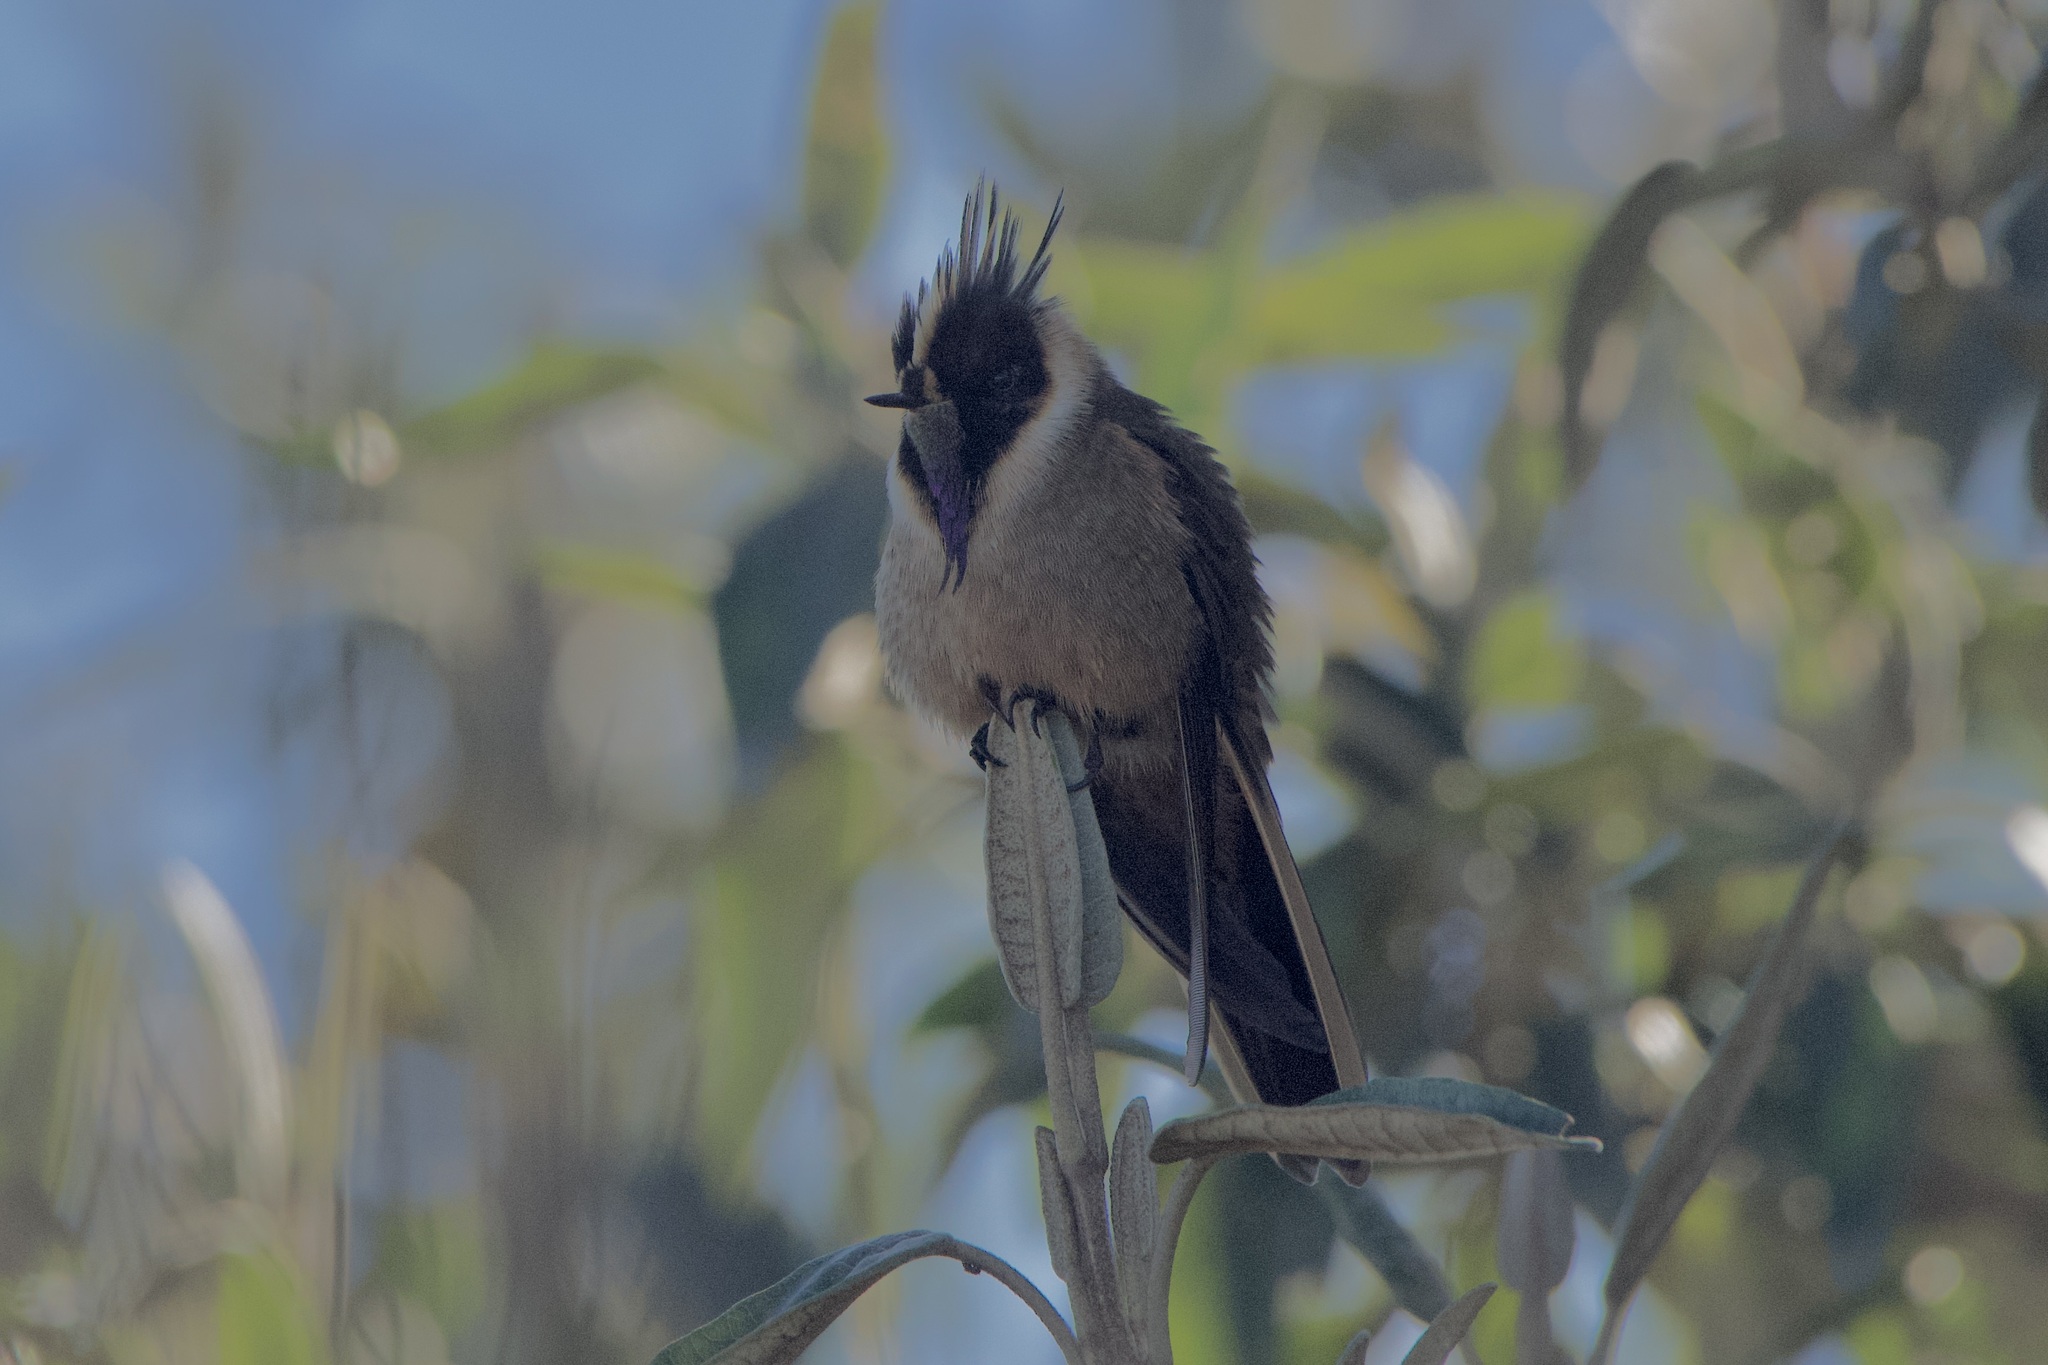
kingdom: Animalia
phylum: Chordata
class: Aves
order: Apodiformes
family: Trochilidae
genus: Oxypogon
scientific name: Oxypogon stuebelii
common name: Buffy helmetcrest
